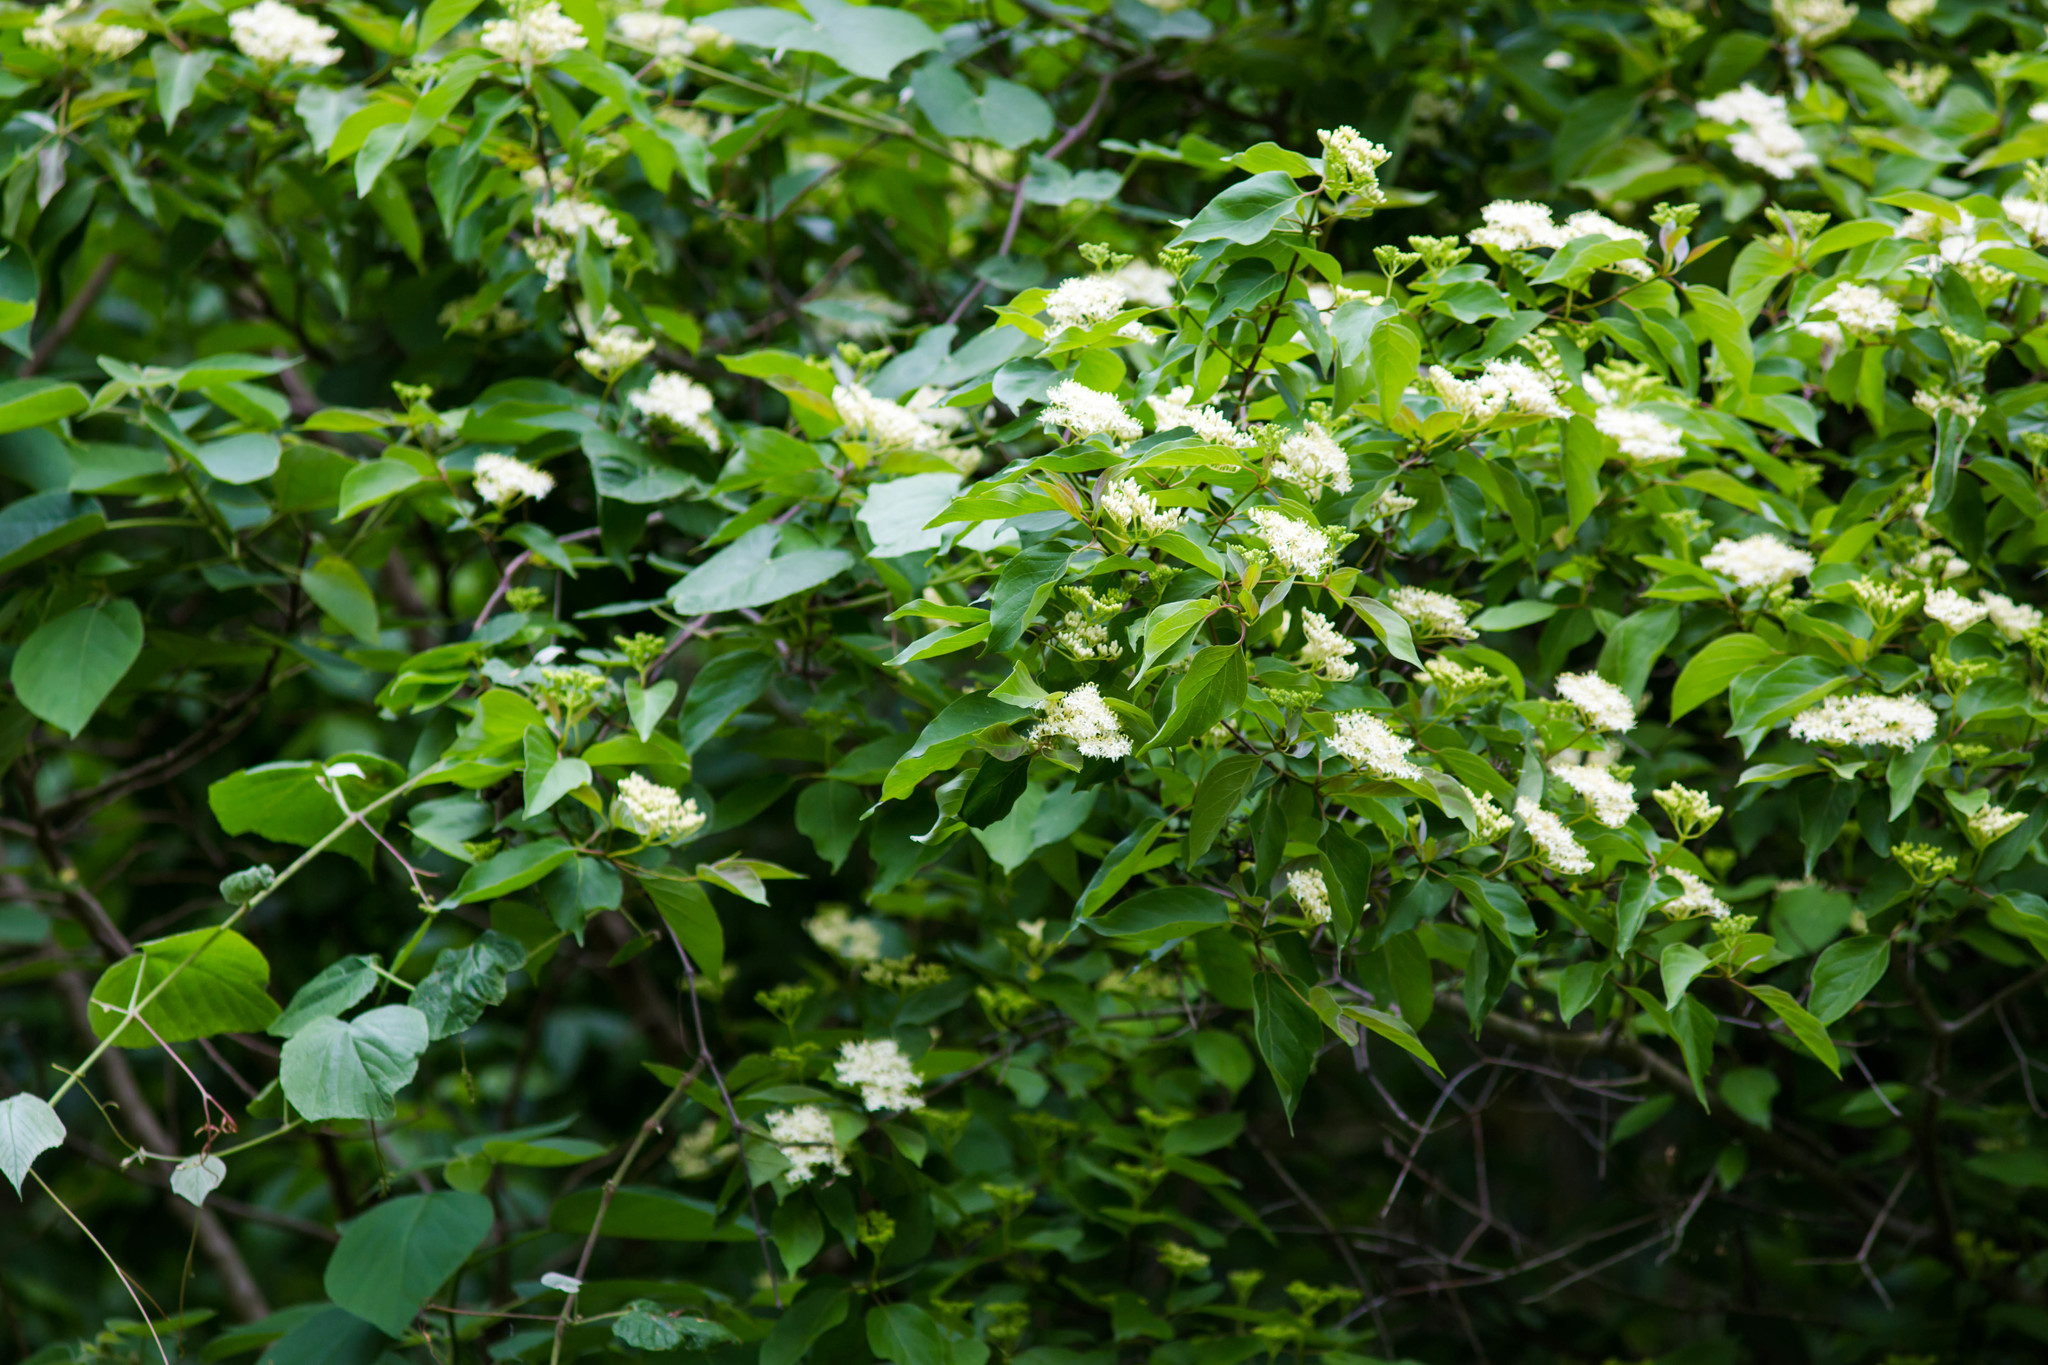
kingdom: Plantae
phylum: Tracheophyta
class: Magnoliopsida
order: Dipsacales
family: Viburnaceae
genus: Viburnum
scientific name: Viburnum rufidulum
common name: Blue haw
